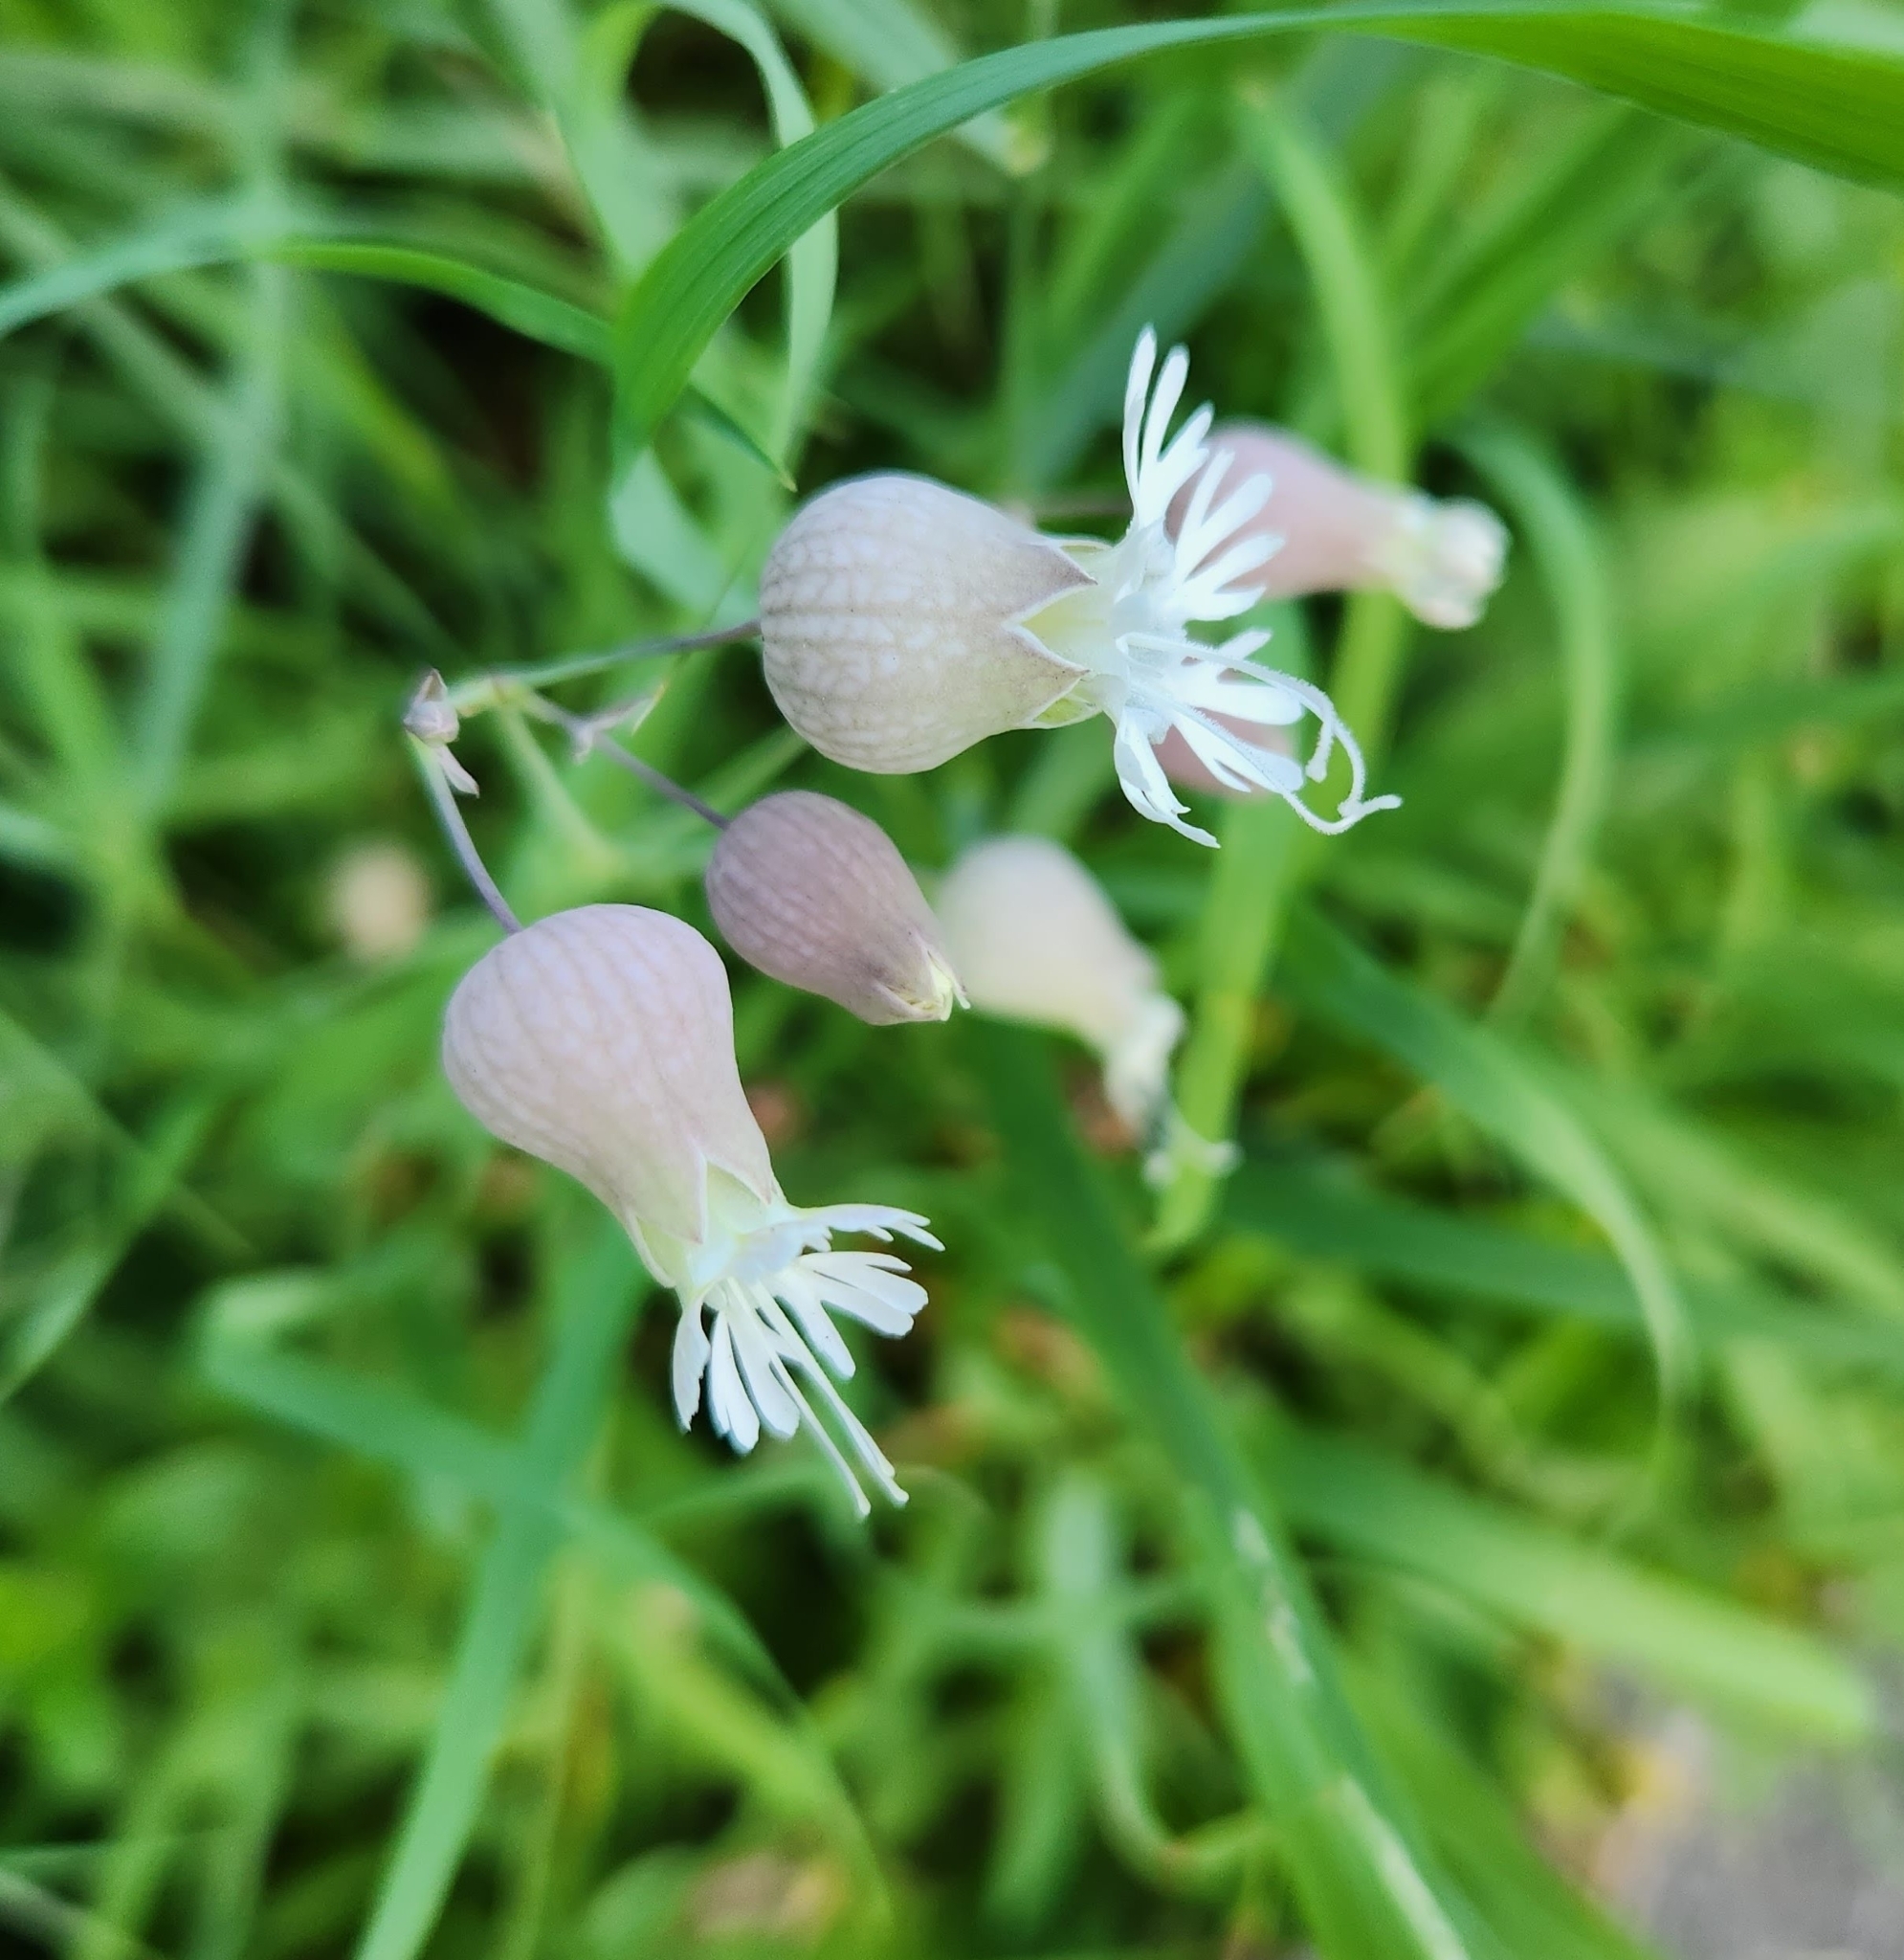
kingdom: Plantae
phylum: Tracheophyta
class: Magnoliopsida
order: Caryophyllales
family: Caryophyllaceae
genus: Silene
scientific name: Silene vulgaris
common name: Bladder campion
